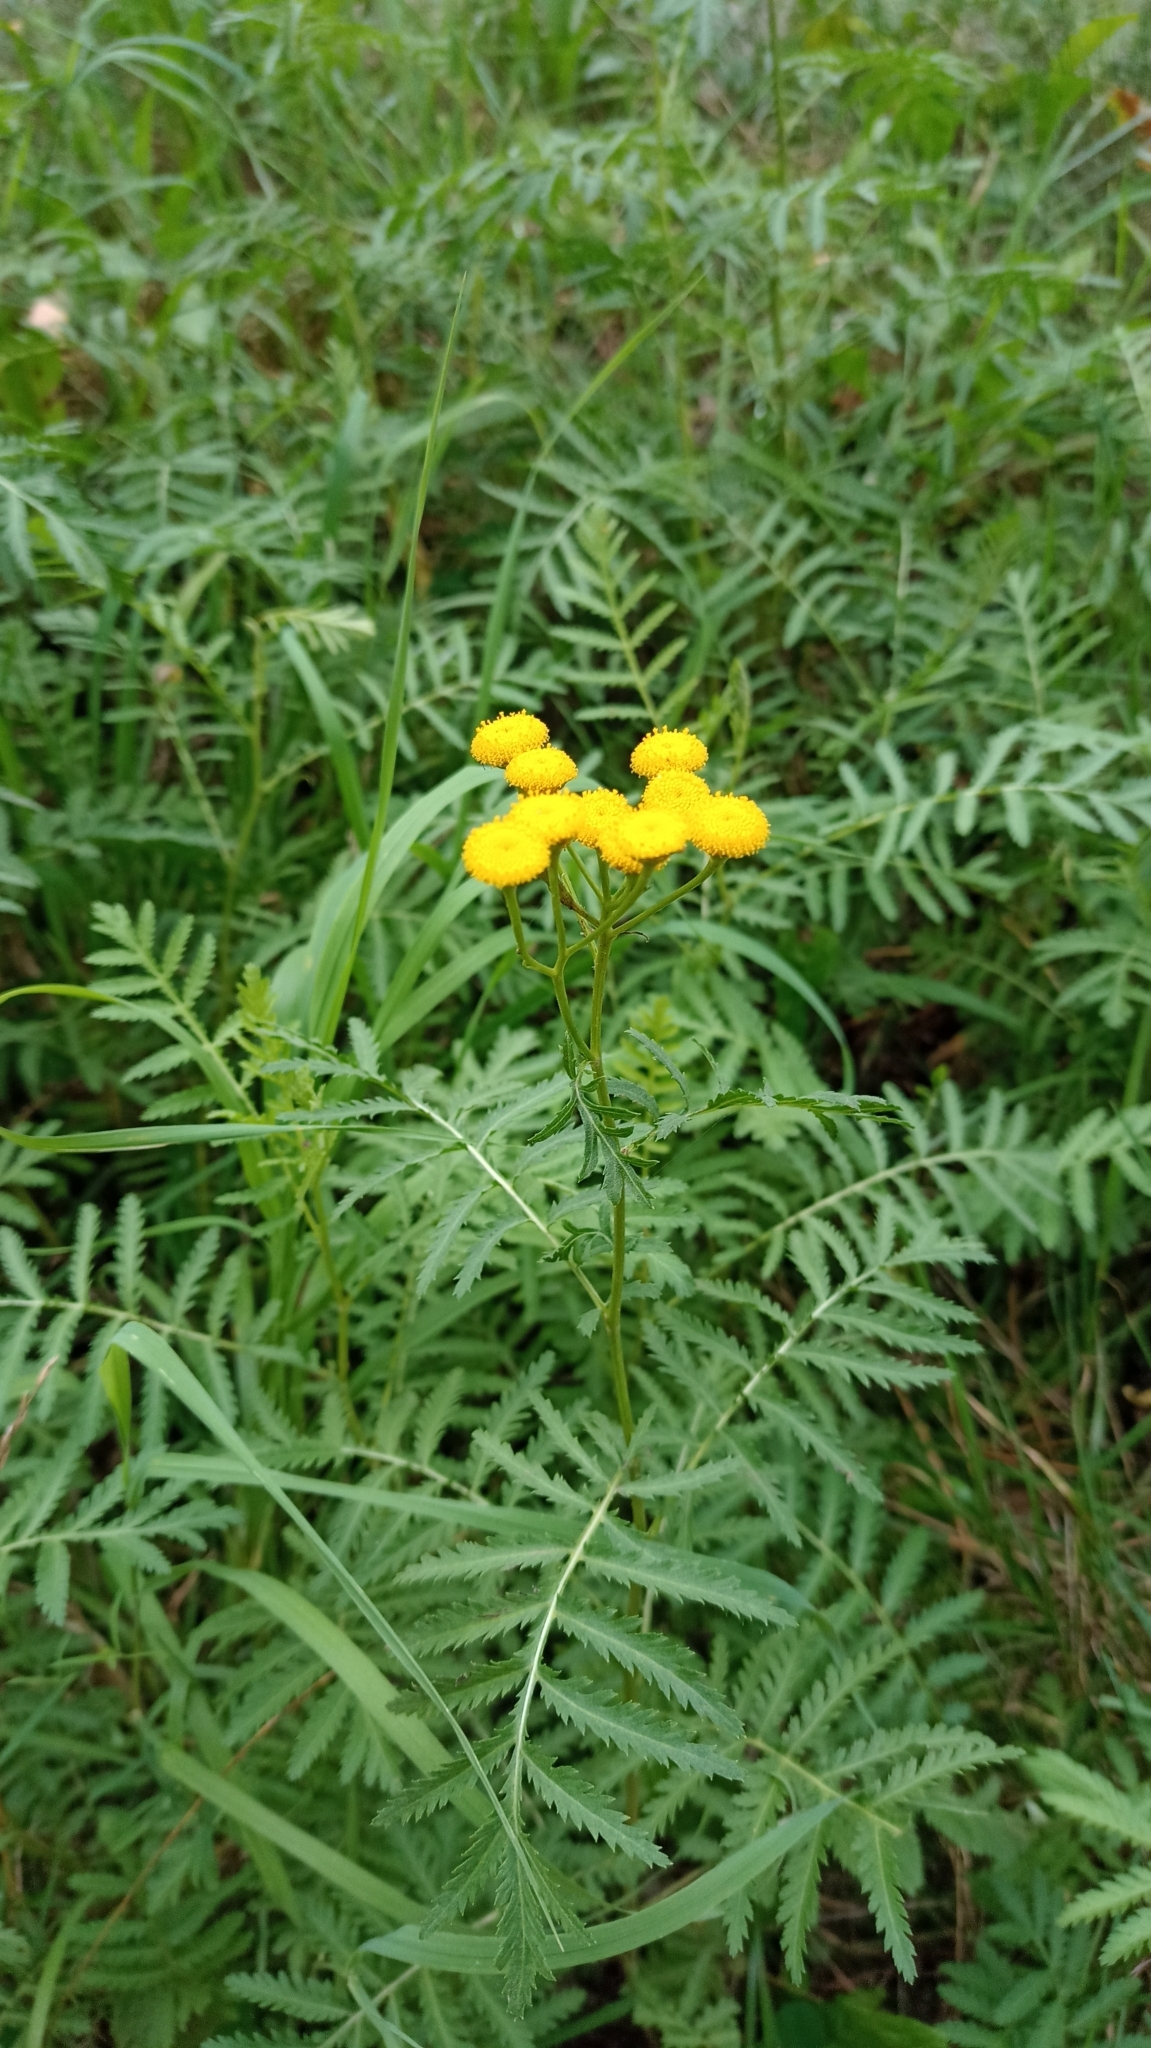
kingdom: Plantae
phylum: Tracheophyta
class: Magnoliopsida
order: Asterales
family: Asteraceae
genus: Tanacetum
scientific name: Tanacetum vulgare
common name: Common tansy
